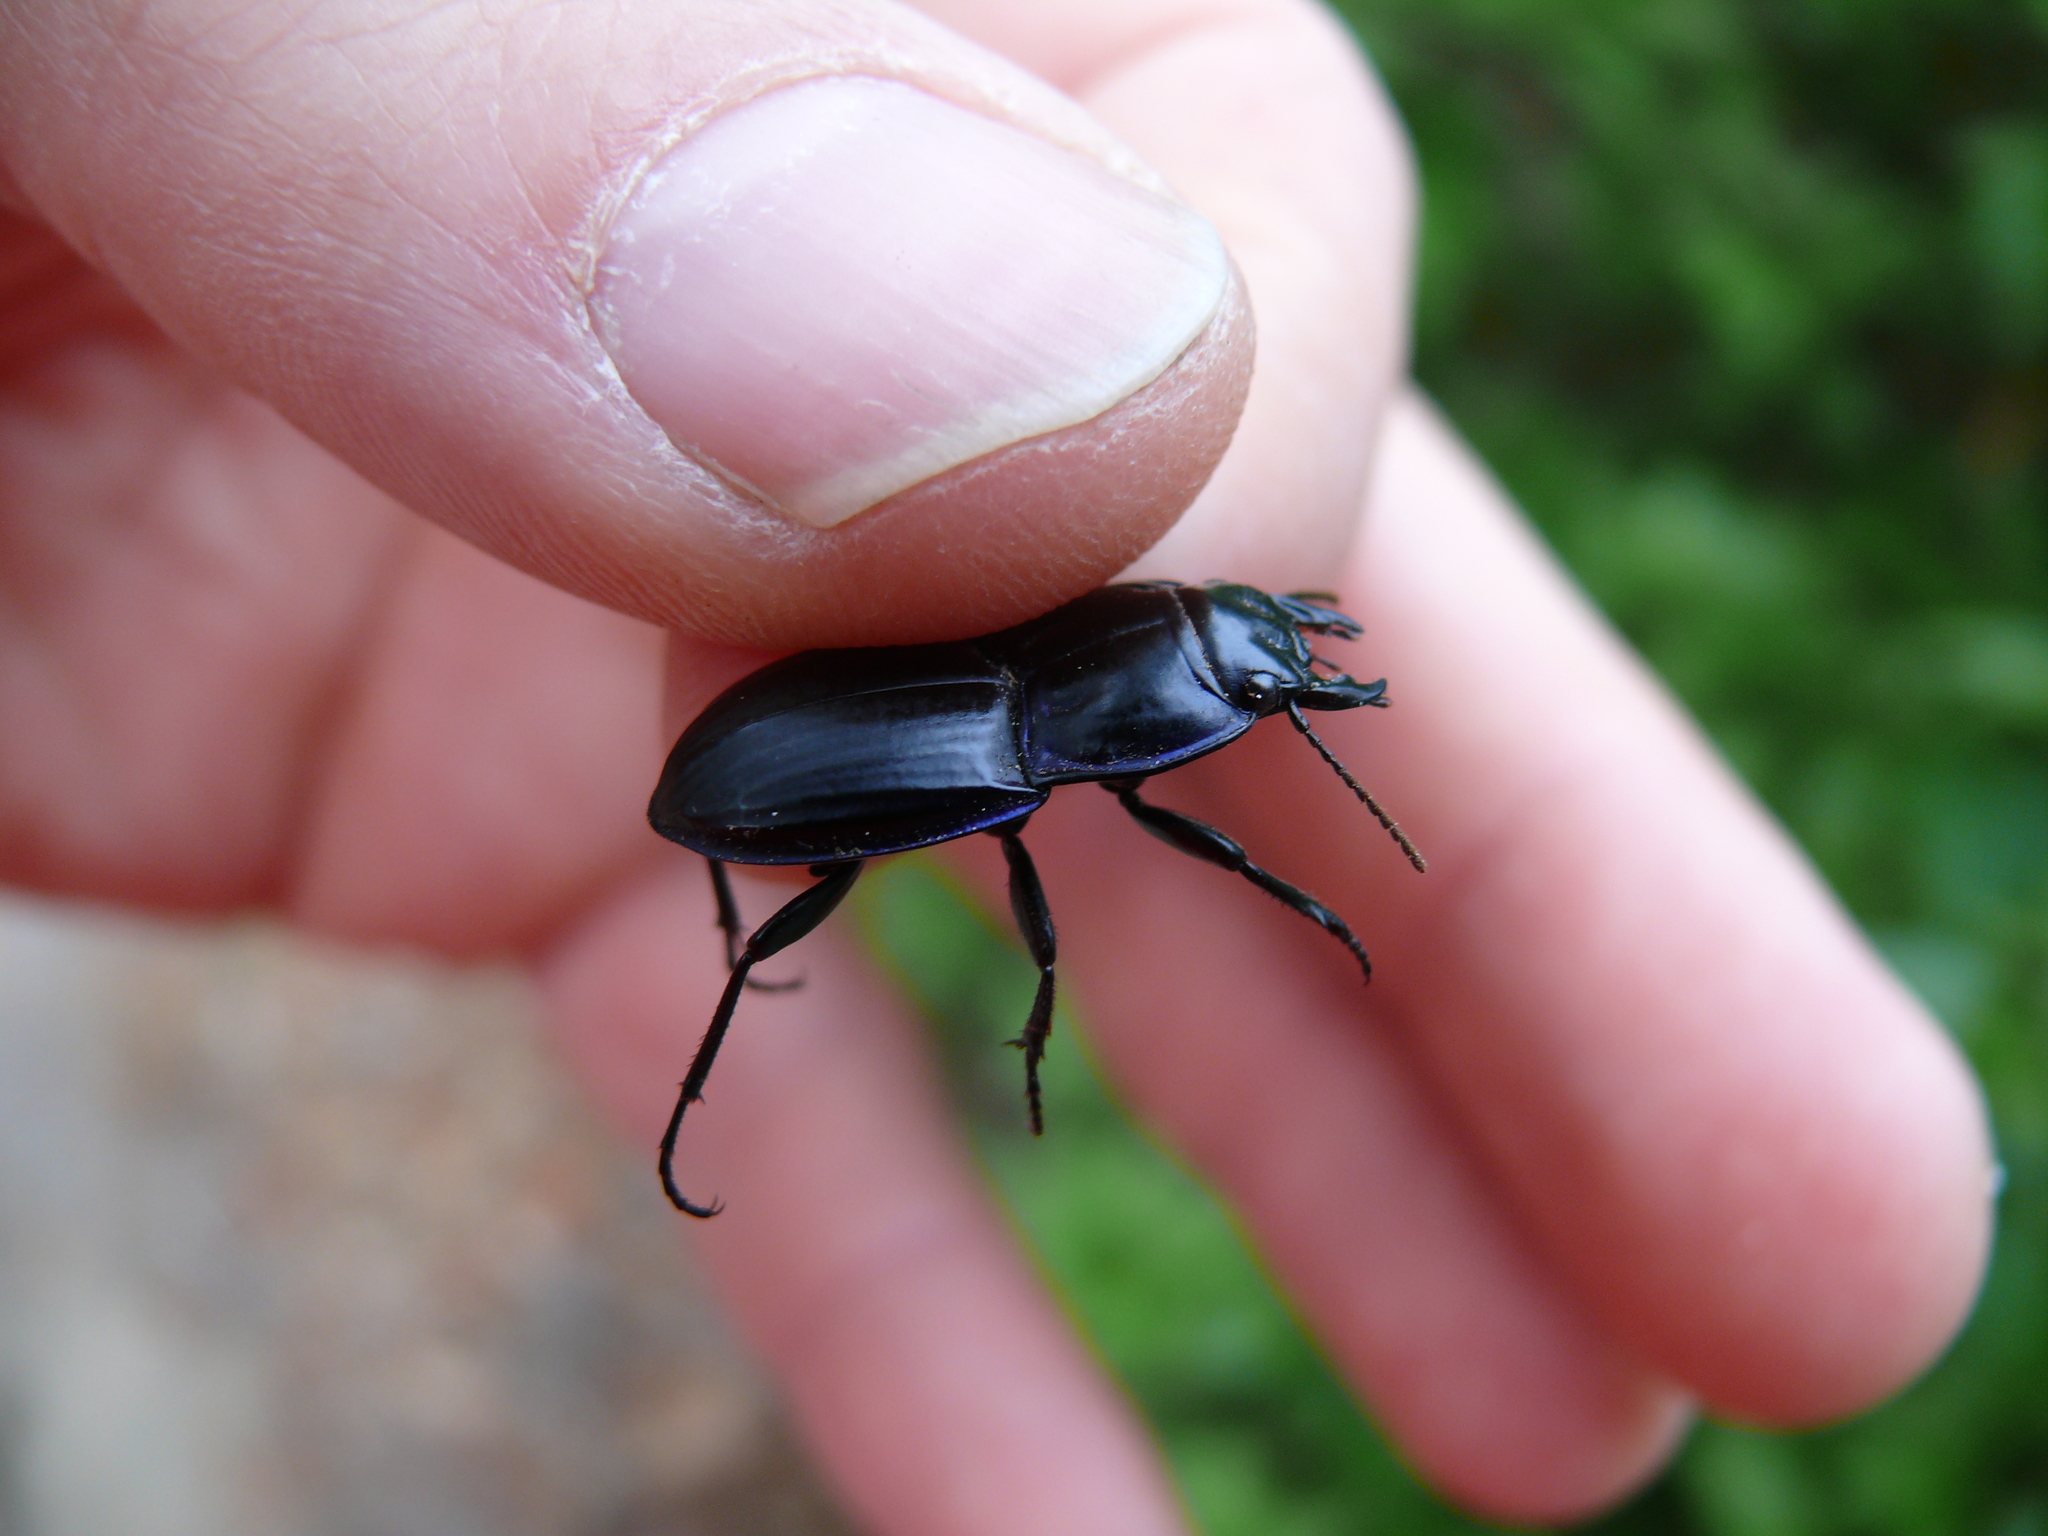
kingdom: Animalia
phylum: Arthropoda
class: Insecta
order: Coleoptera
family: Carabidae
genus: Pasimachus
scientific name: Pasimachus subsulcatus
